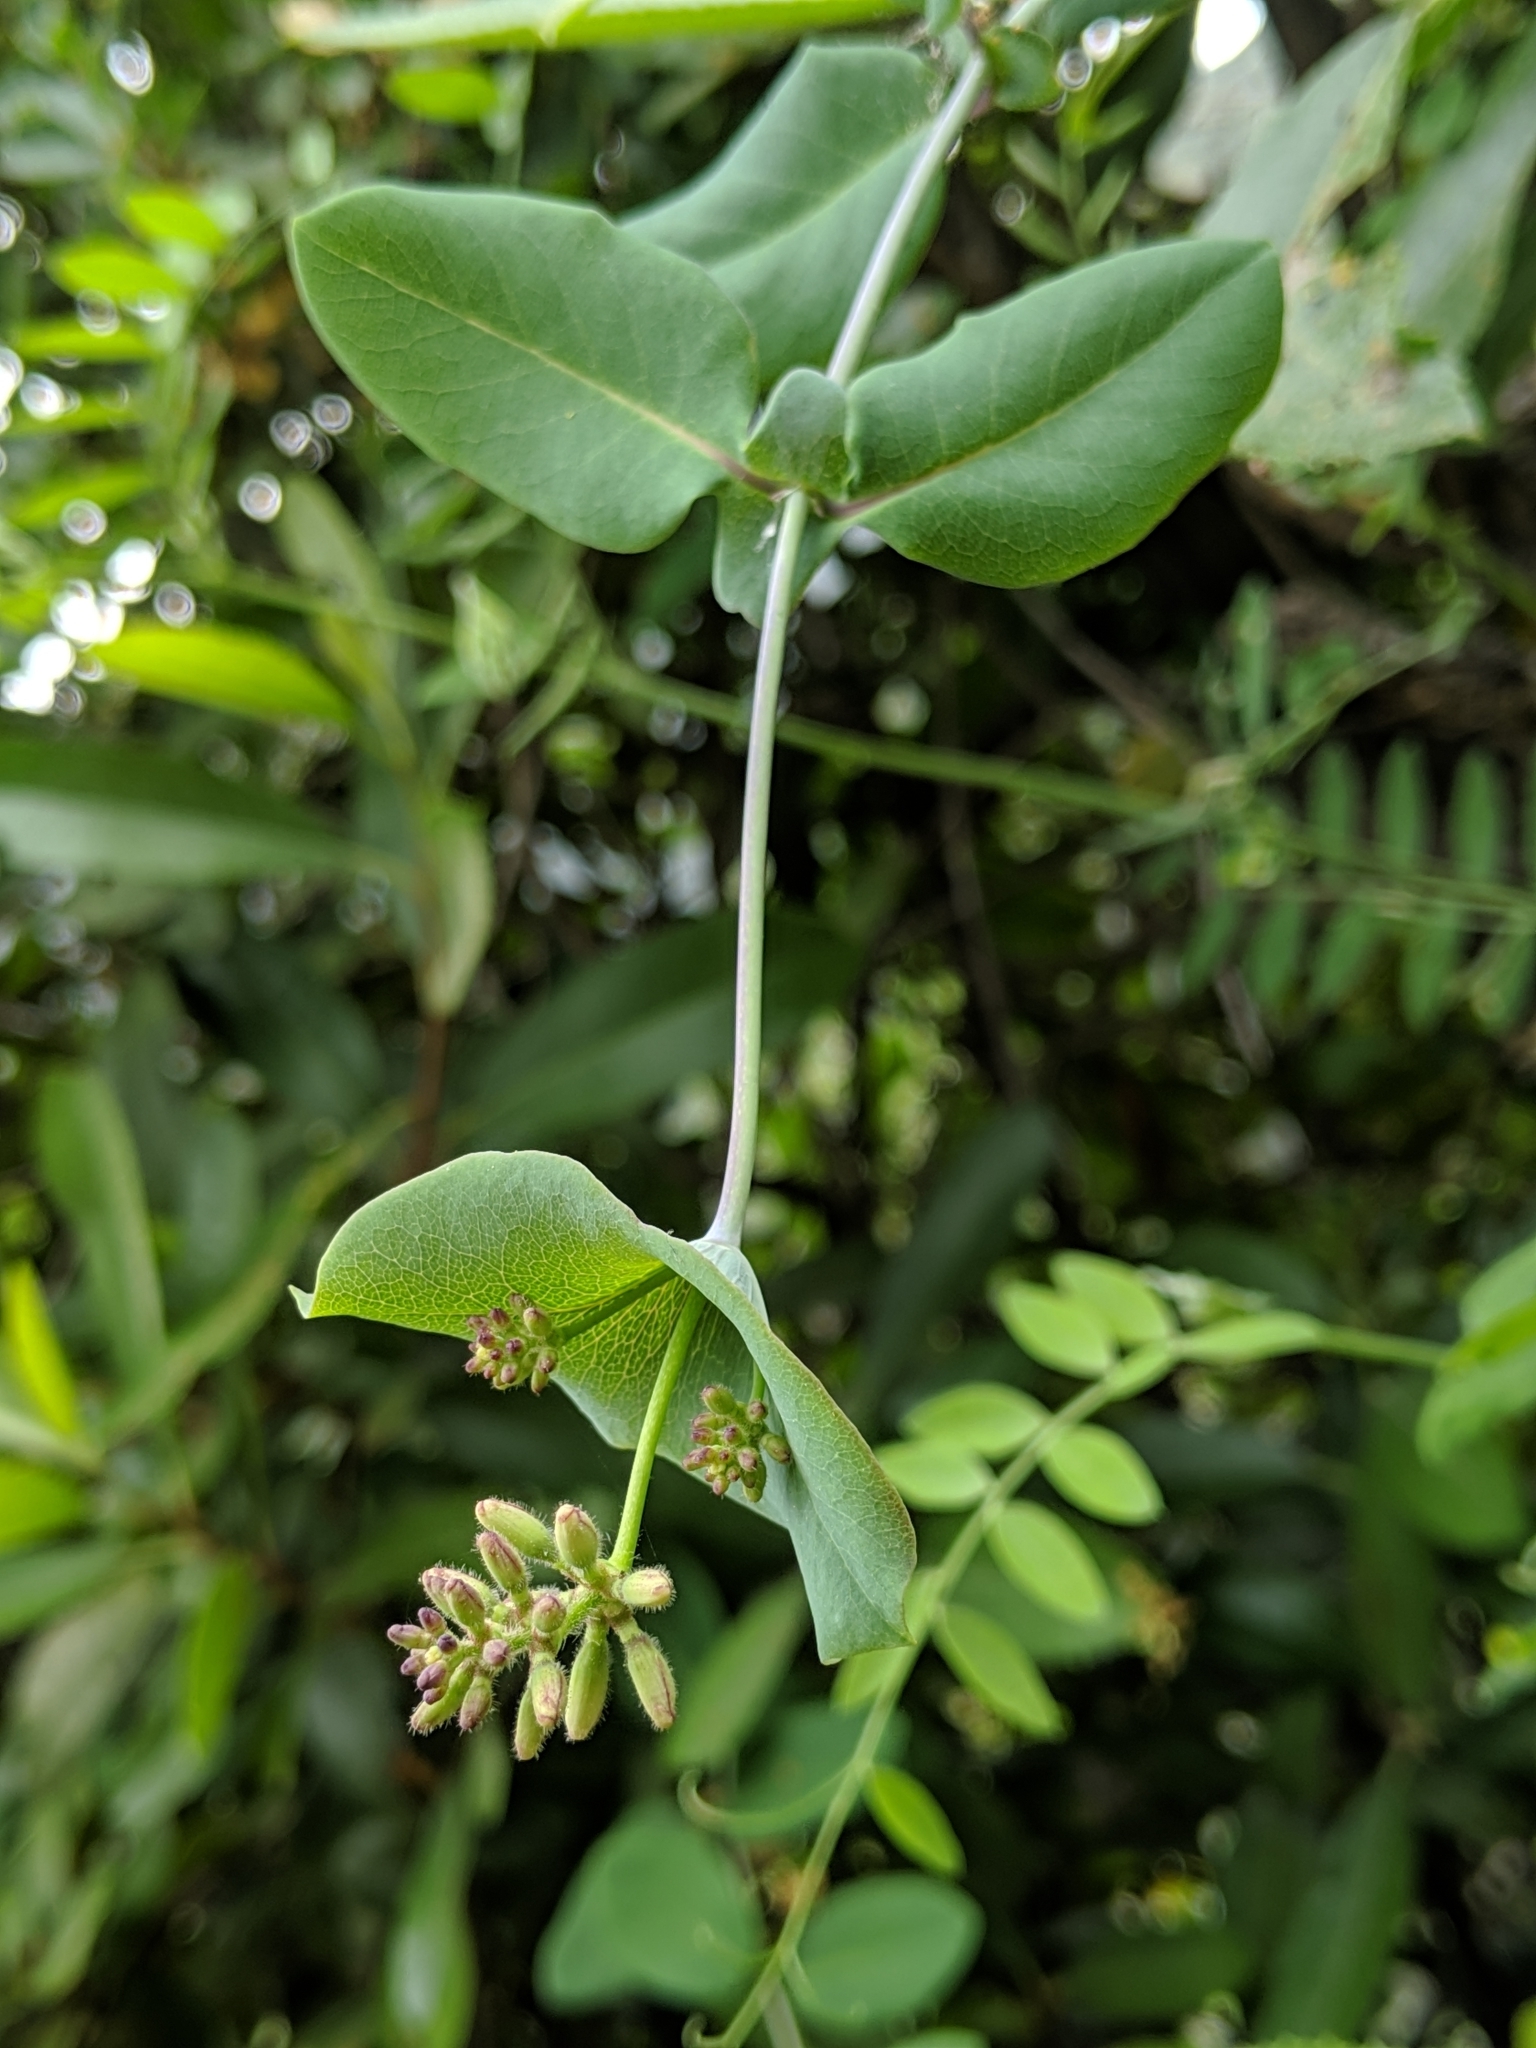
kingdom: Plantae
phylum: Tracheophyta
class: Magnoliopsida
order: Dipsacales
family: Caprifoliaceae
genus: Lonicera
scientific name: Lonicera hispidula
